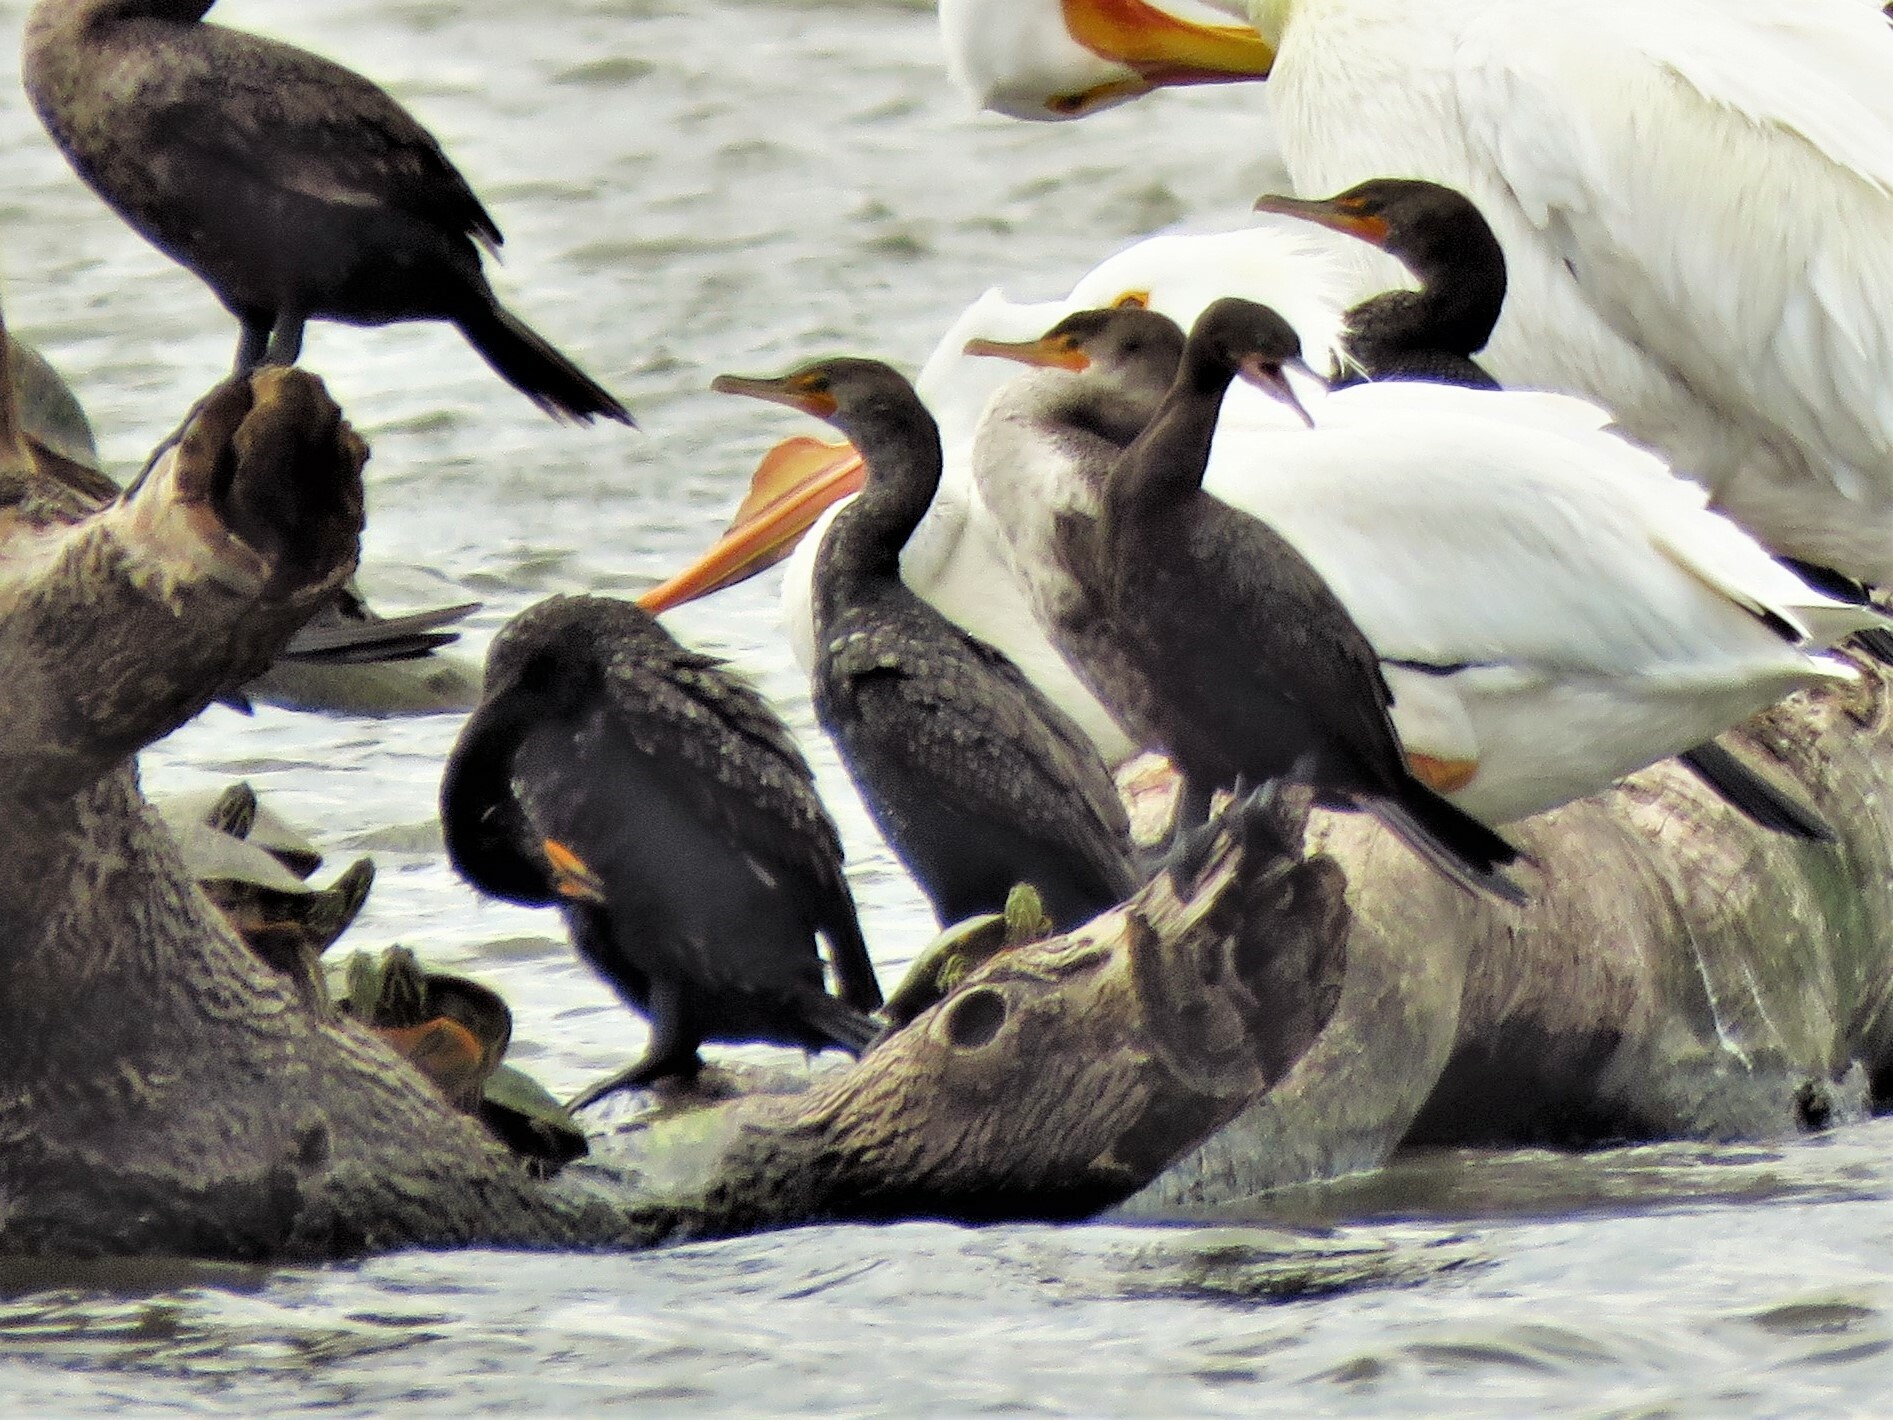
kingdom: Animalia
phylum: Chordata
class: Aves
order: Suliformes
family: Phalacrocoracidae
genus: Phalacrocorax
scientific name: Phalacrocorax auritus
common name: Double-crested cormorant
